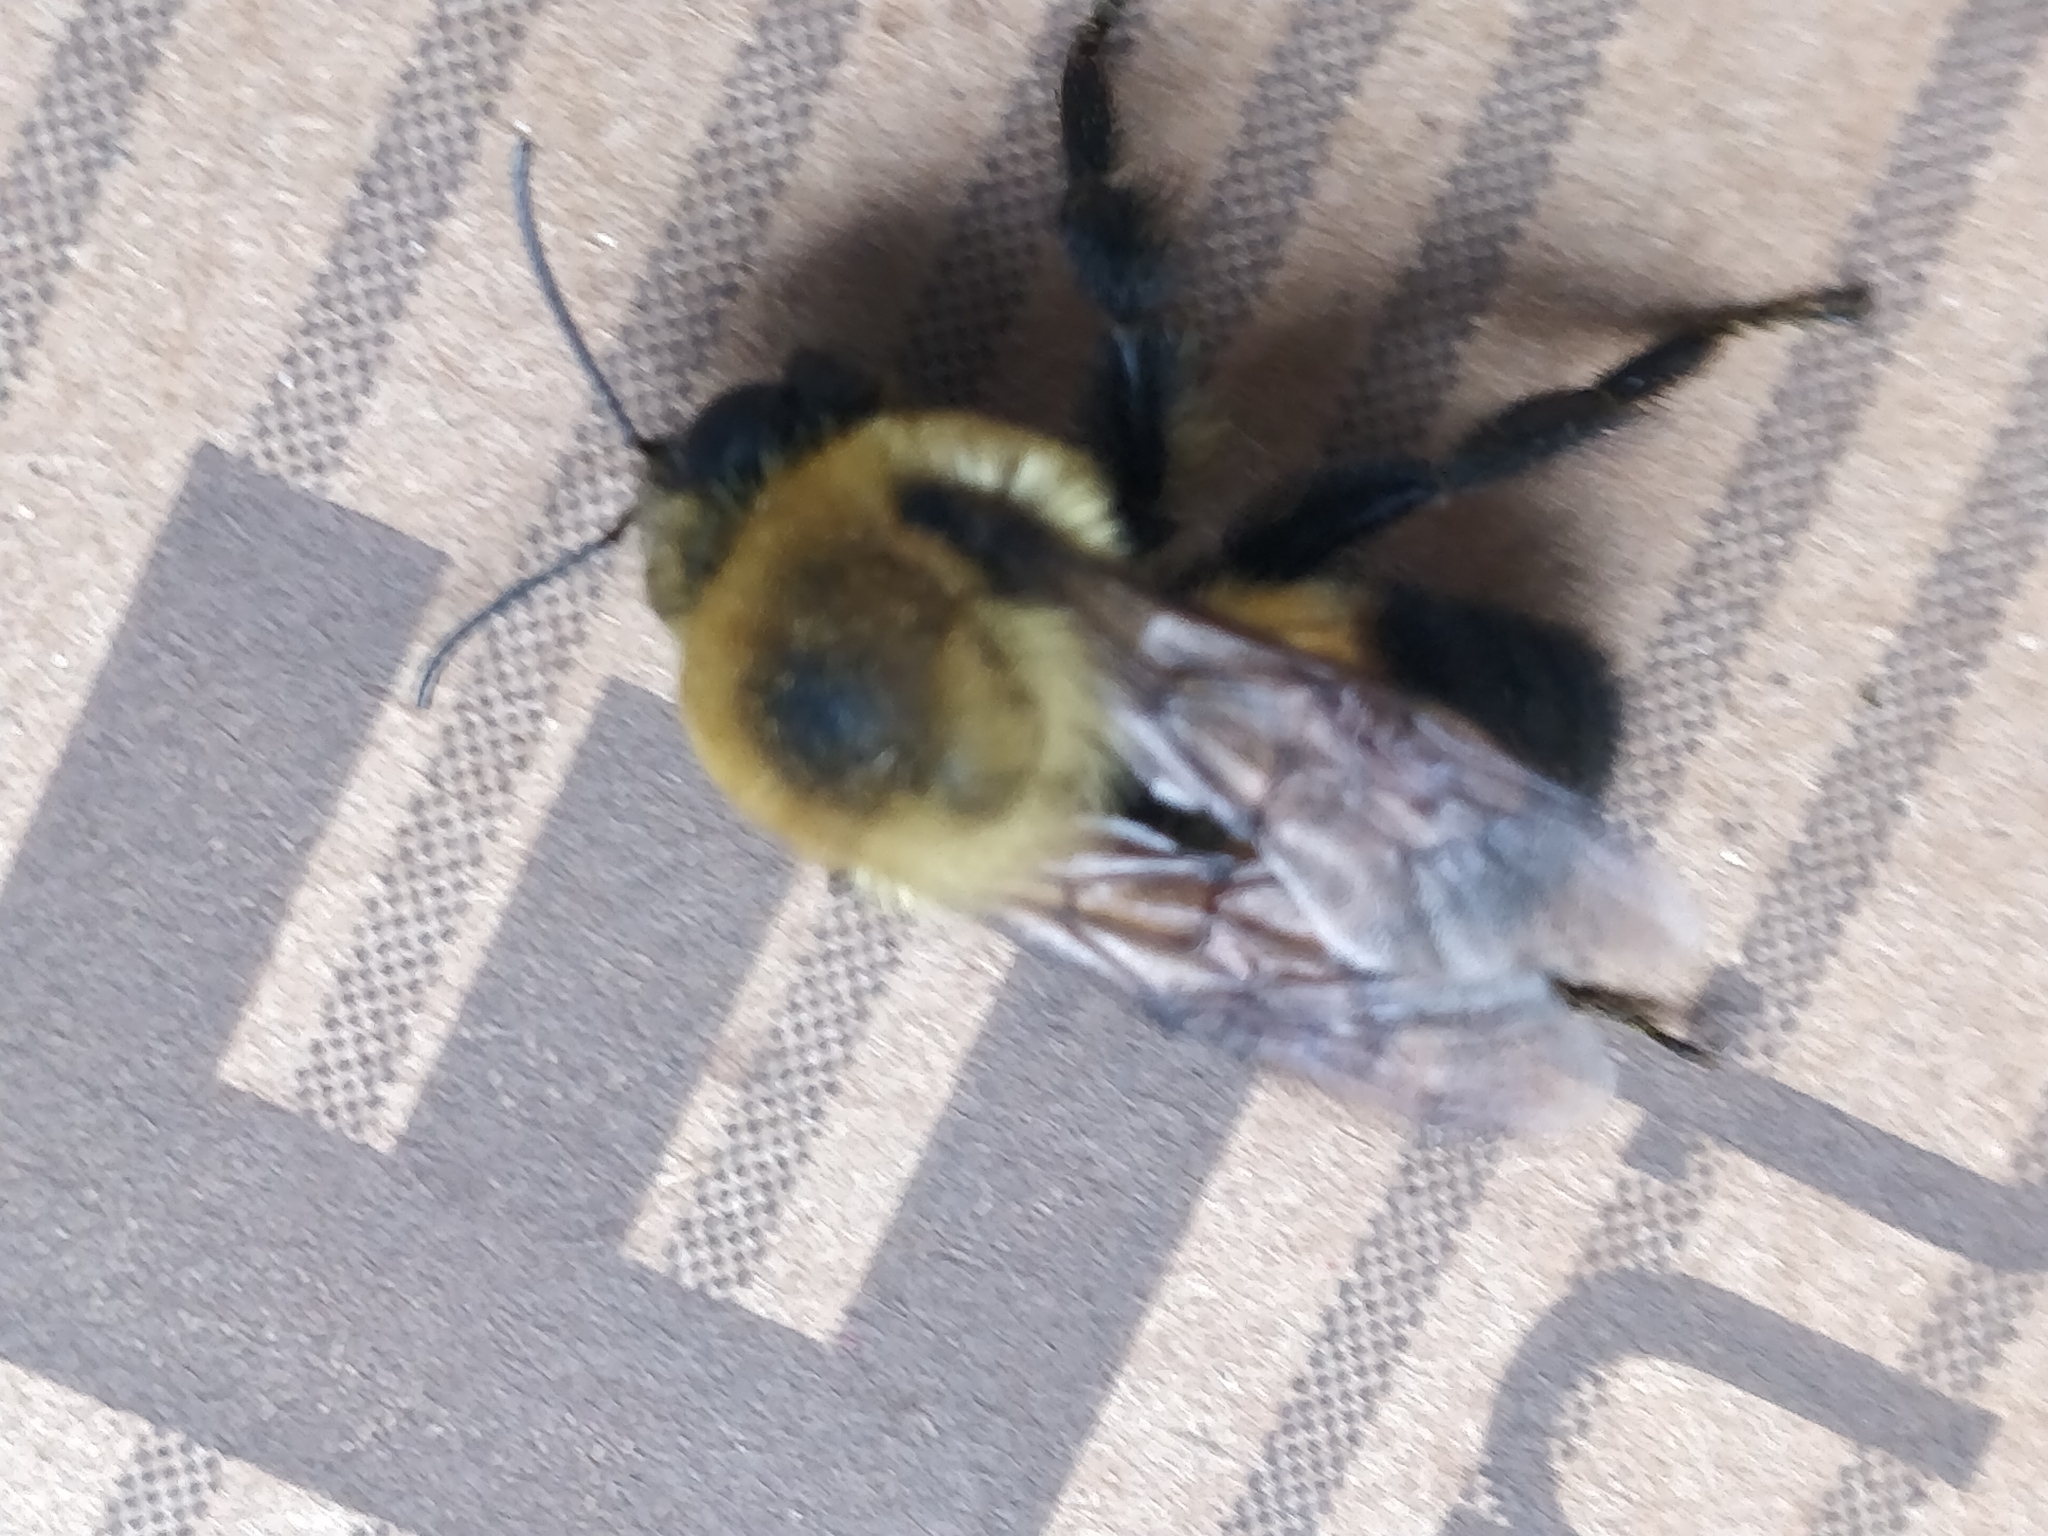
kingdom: Animalia
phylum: Arthropoda
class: Insecta
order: Hymenoptera
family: Apidae
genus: Bombus
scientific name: Bombus griseocollis
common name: Brown-belted bumble bee
